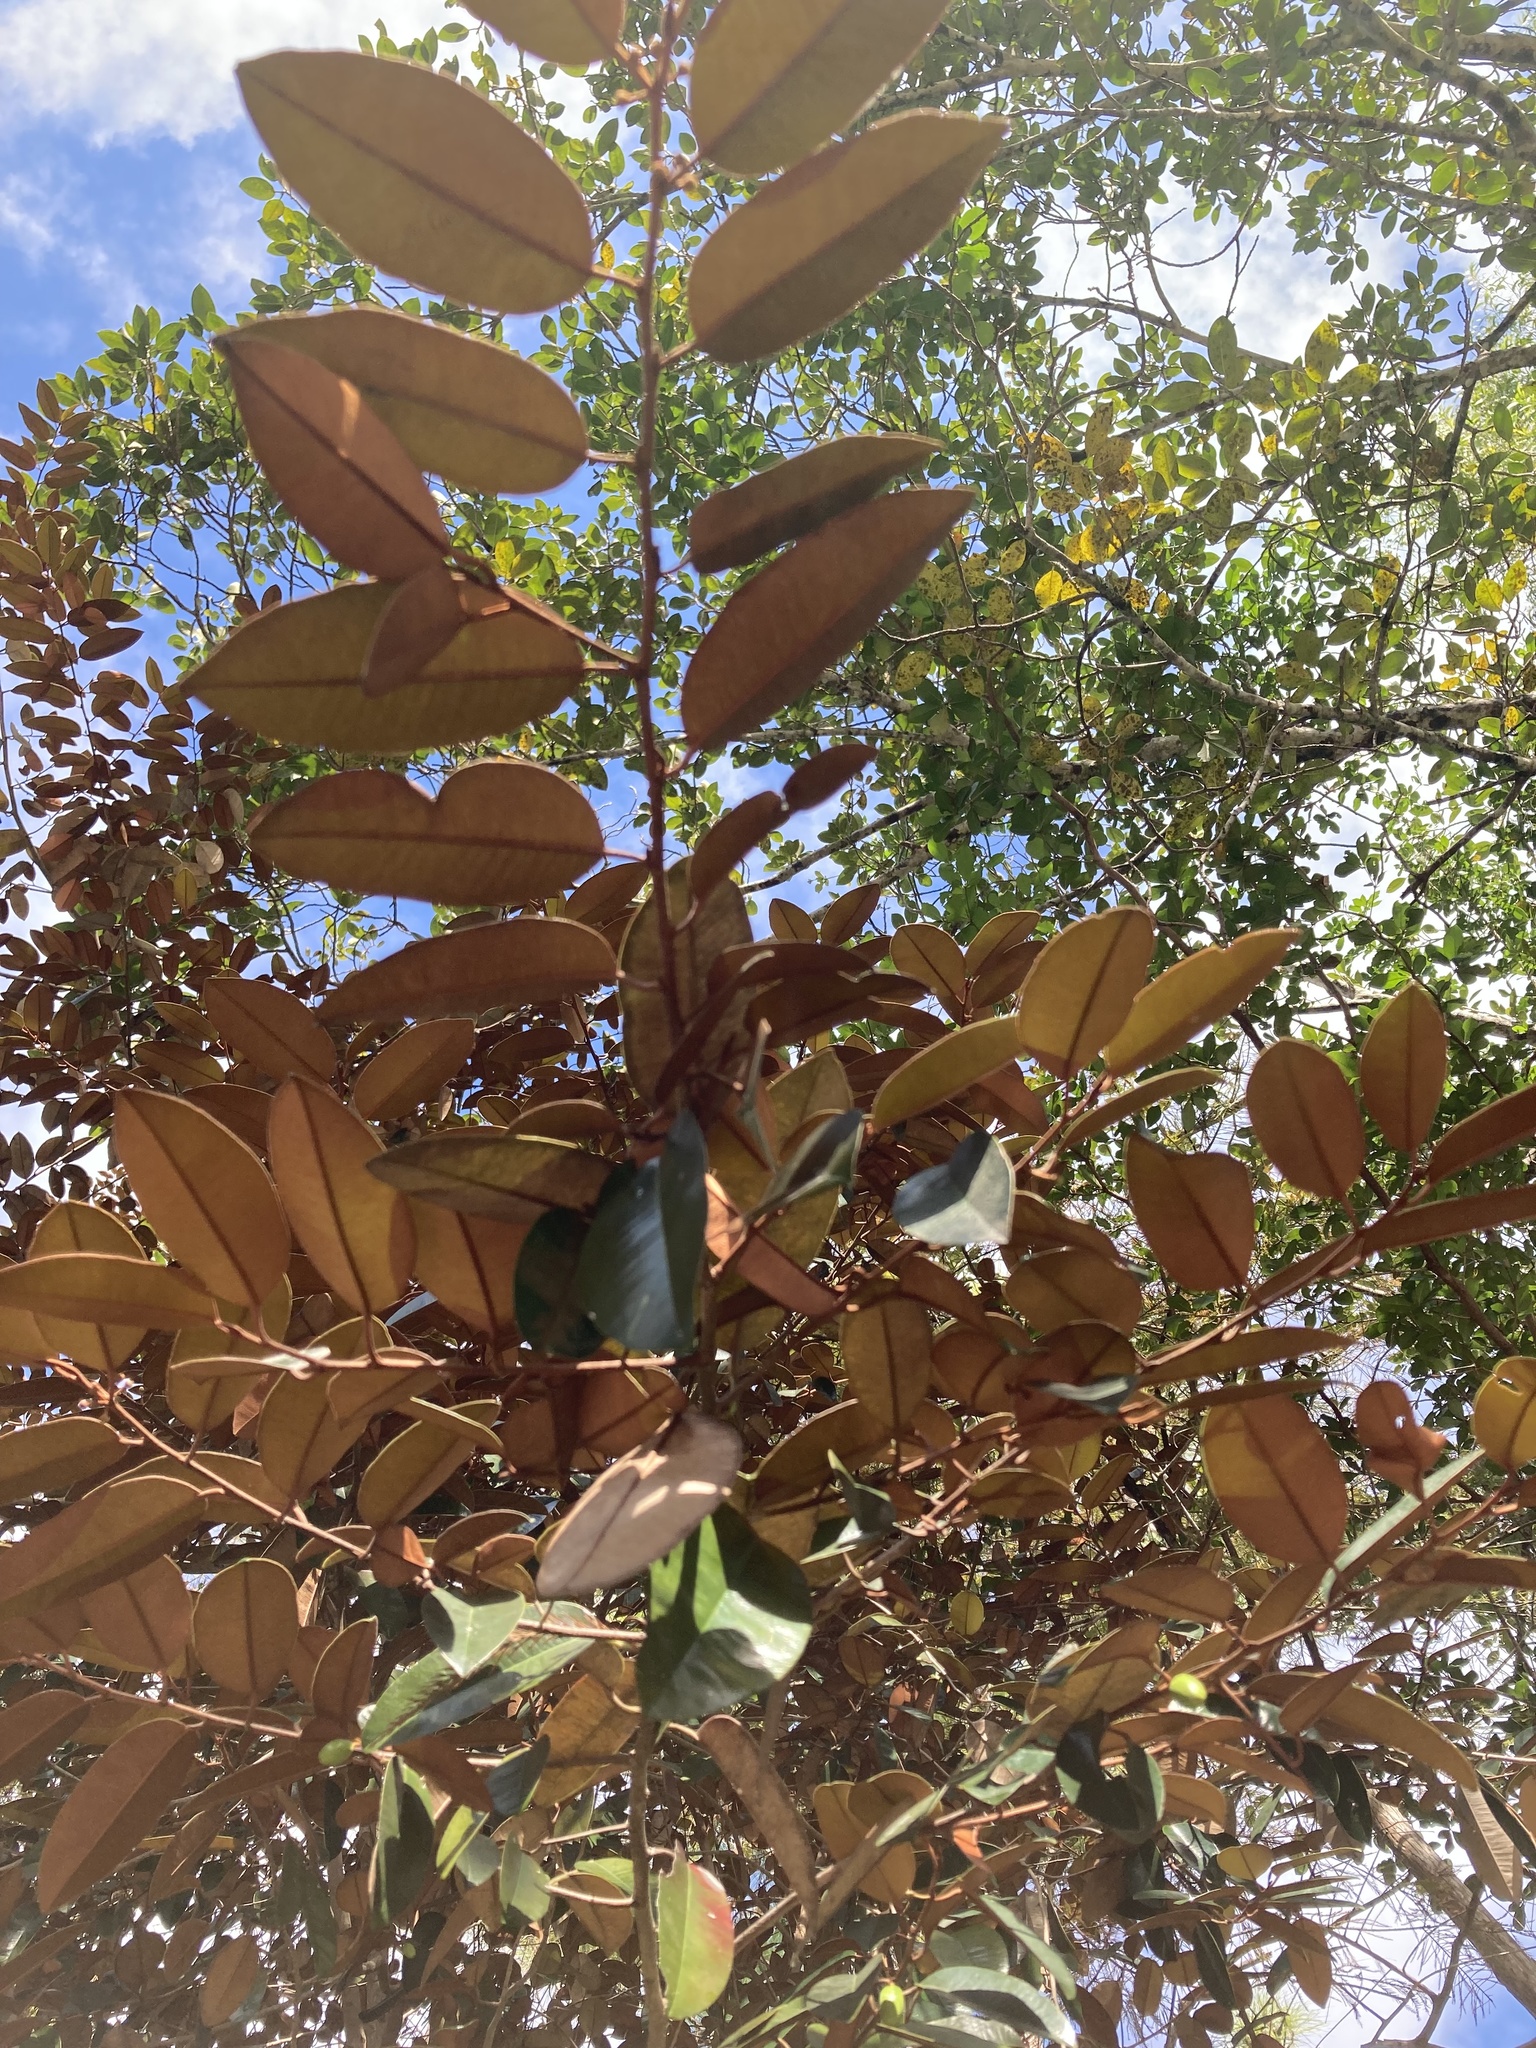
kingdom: Plantae
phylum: Tracheophyta
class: Magnoliopsida
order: Ericales
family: Sapotaceae
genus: Chrysophyllum
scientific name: Chrysophyllum oliviforme
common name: Satinleaf
